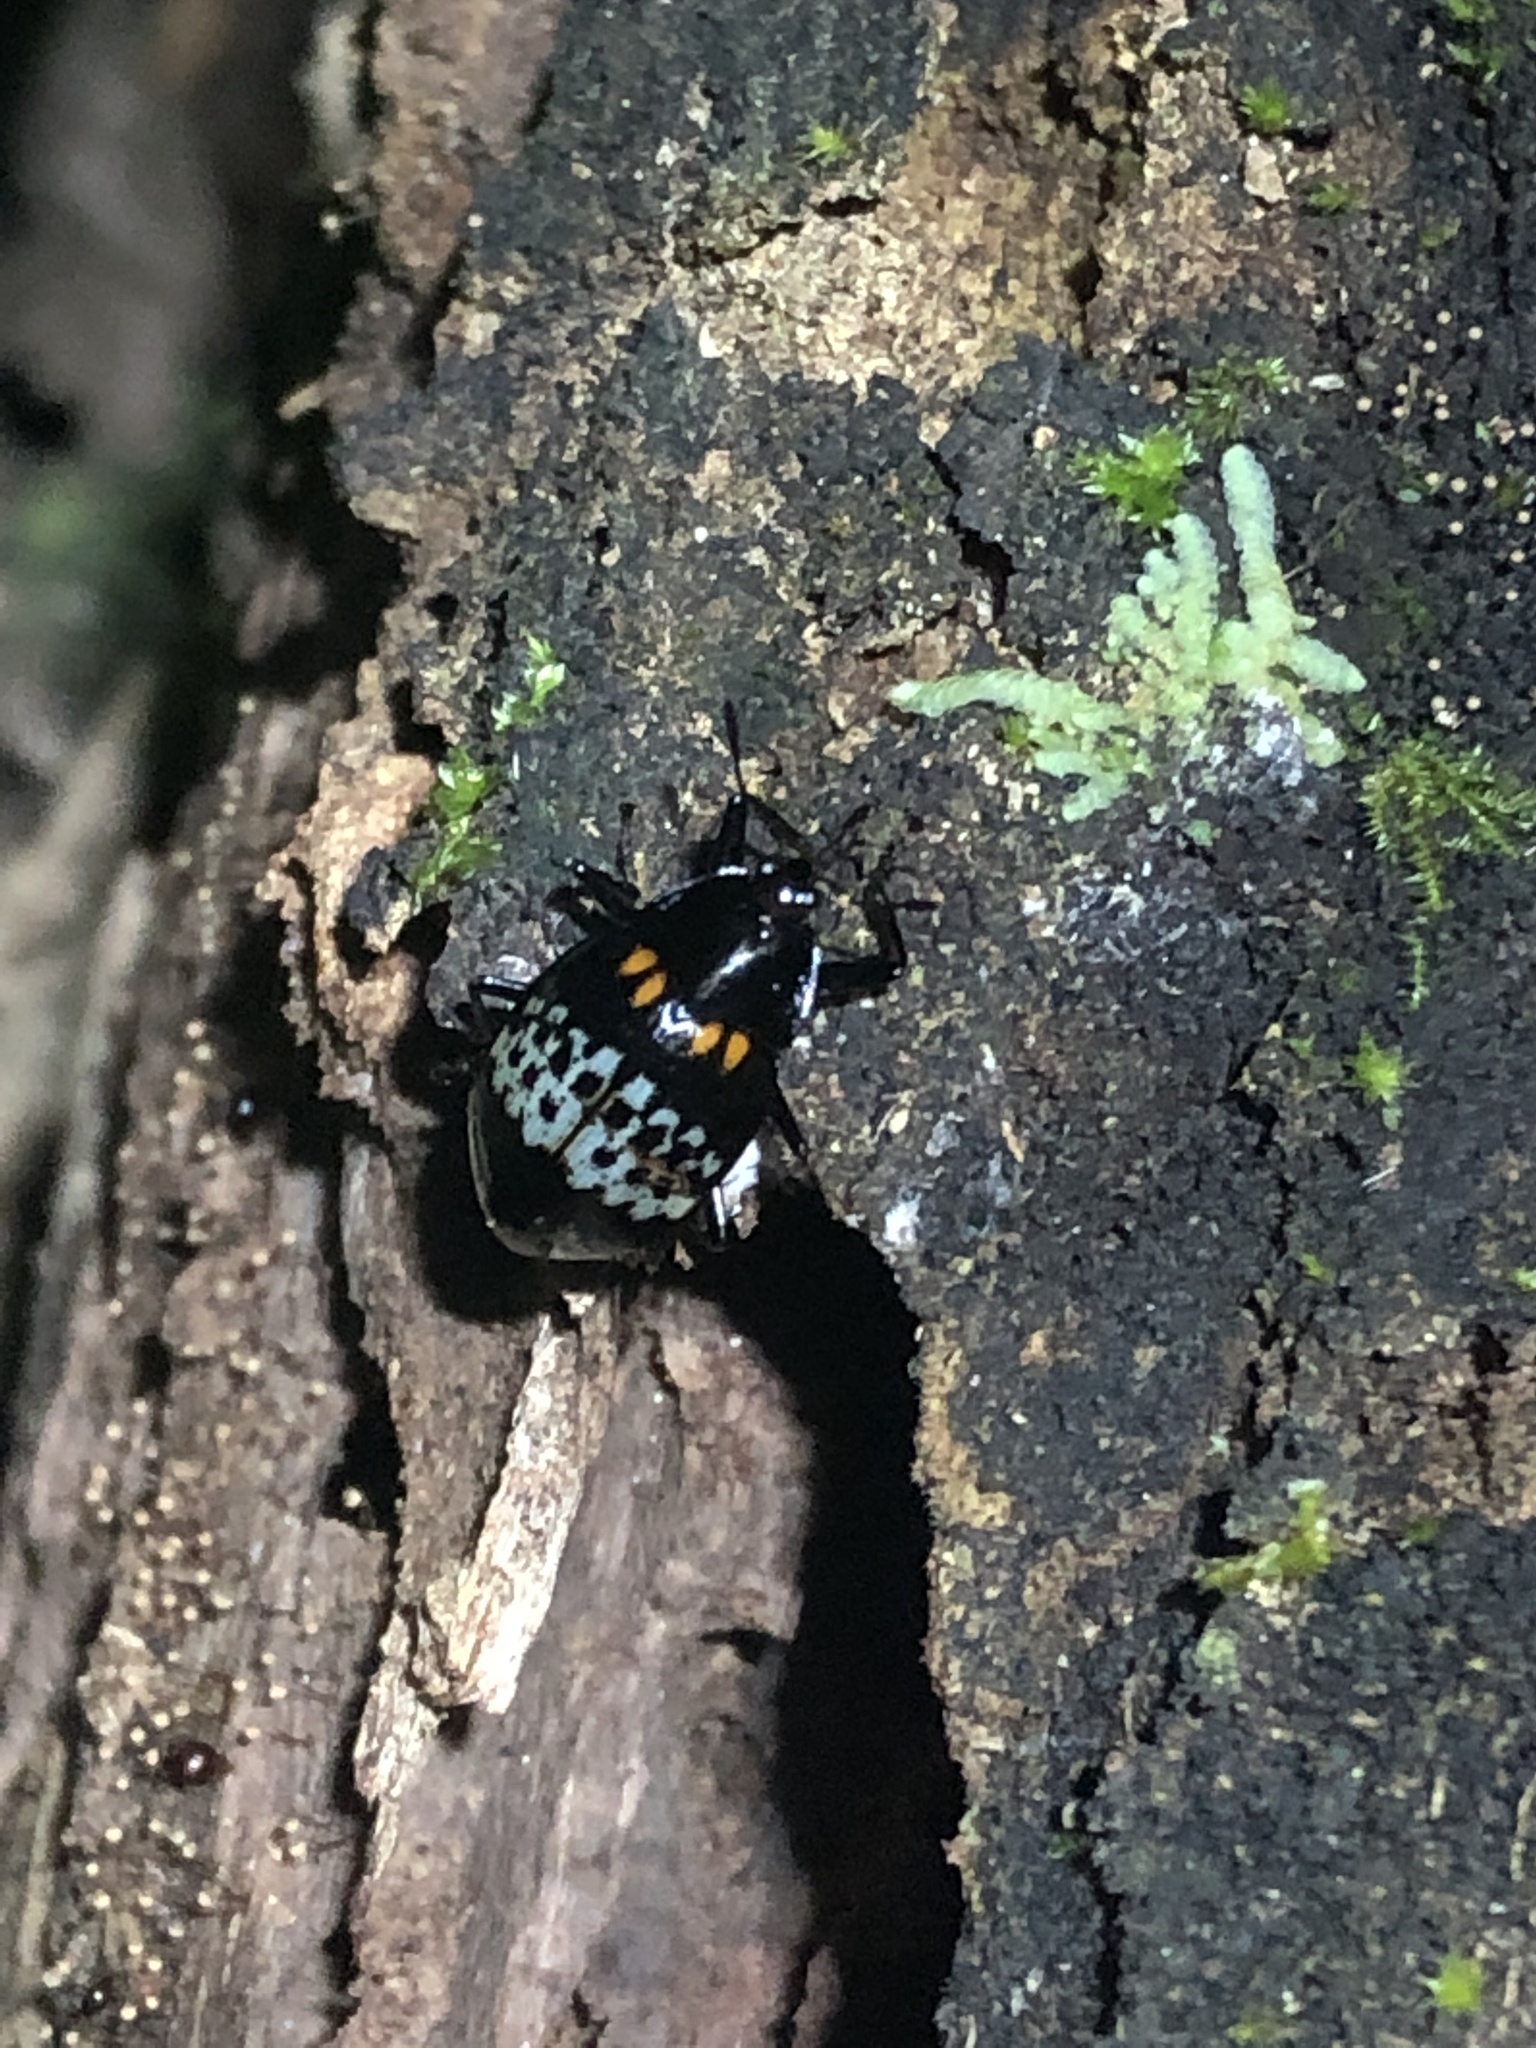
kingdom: Animalia
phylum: Arthropoda
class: Insecta
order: Coleoptera
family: Erotylidae
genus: Prepopharus
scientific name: Prepopharus
